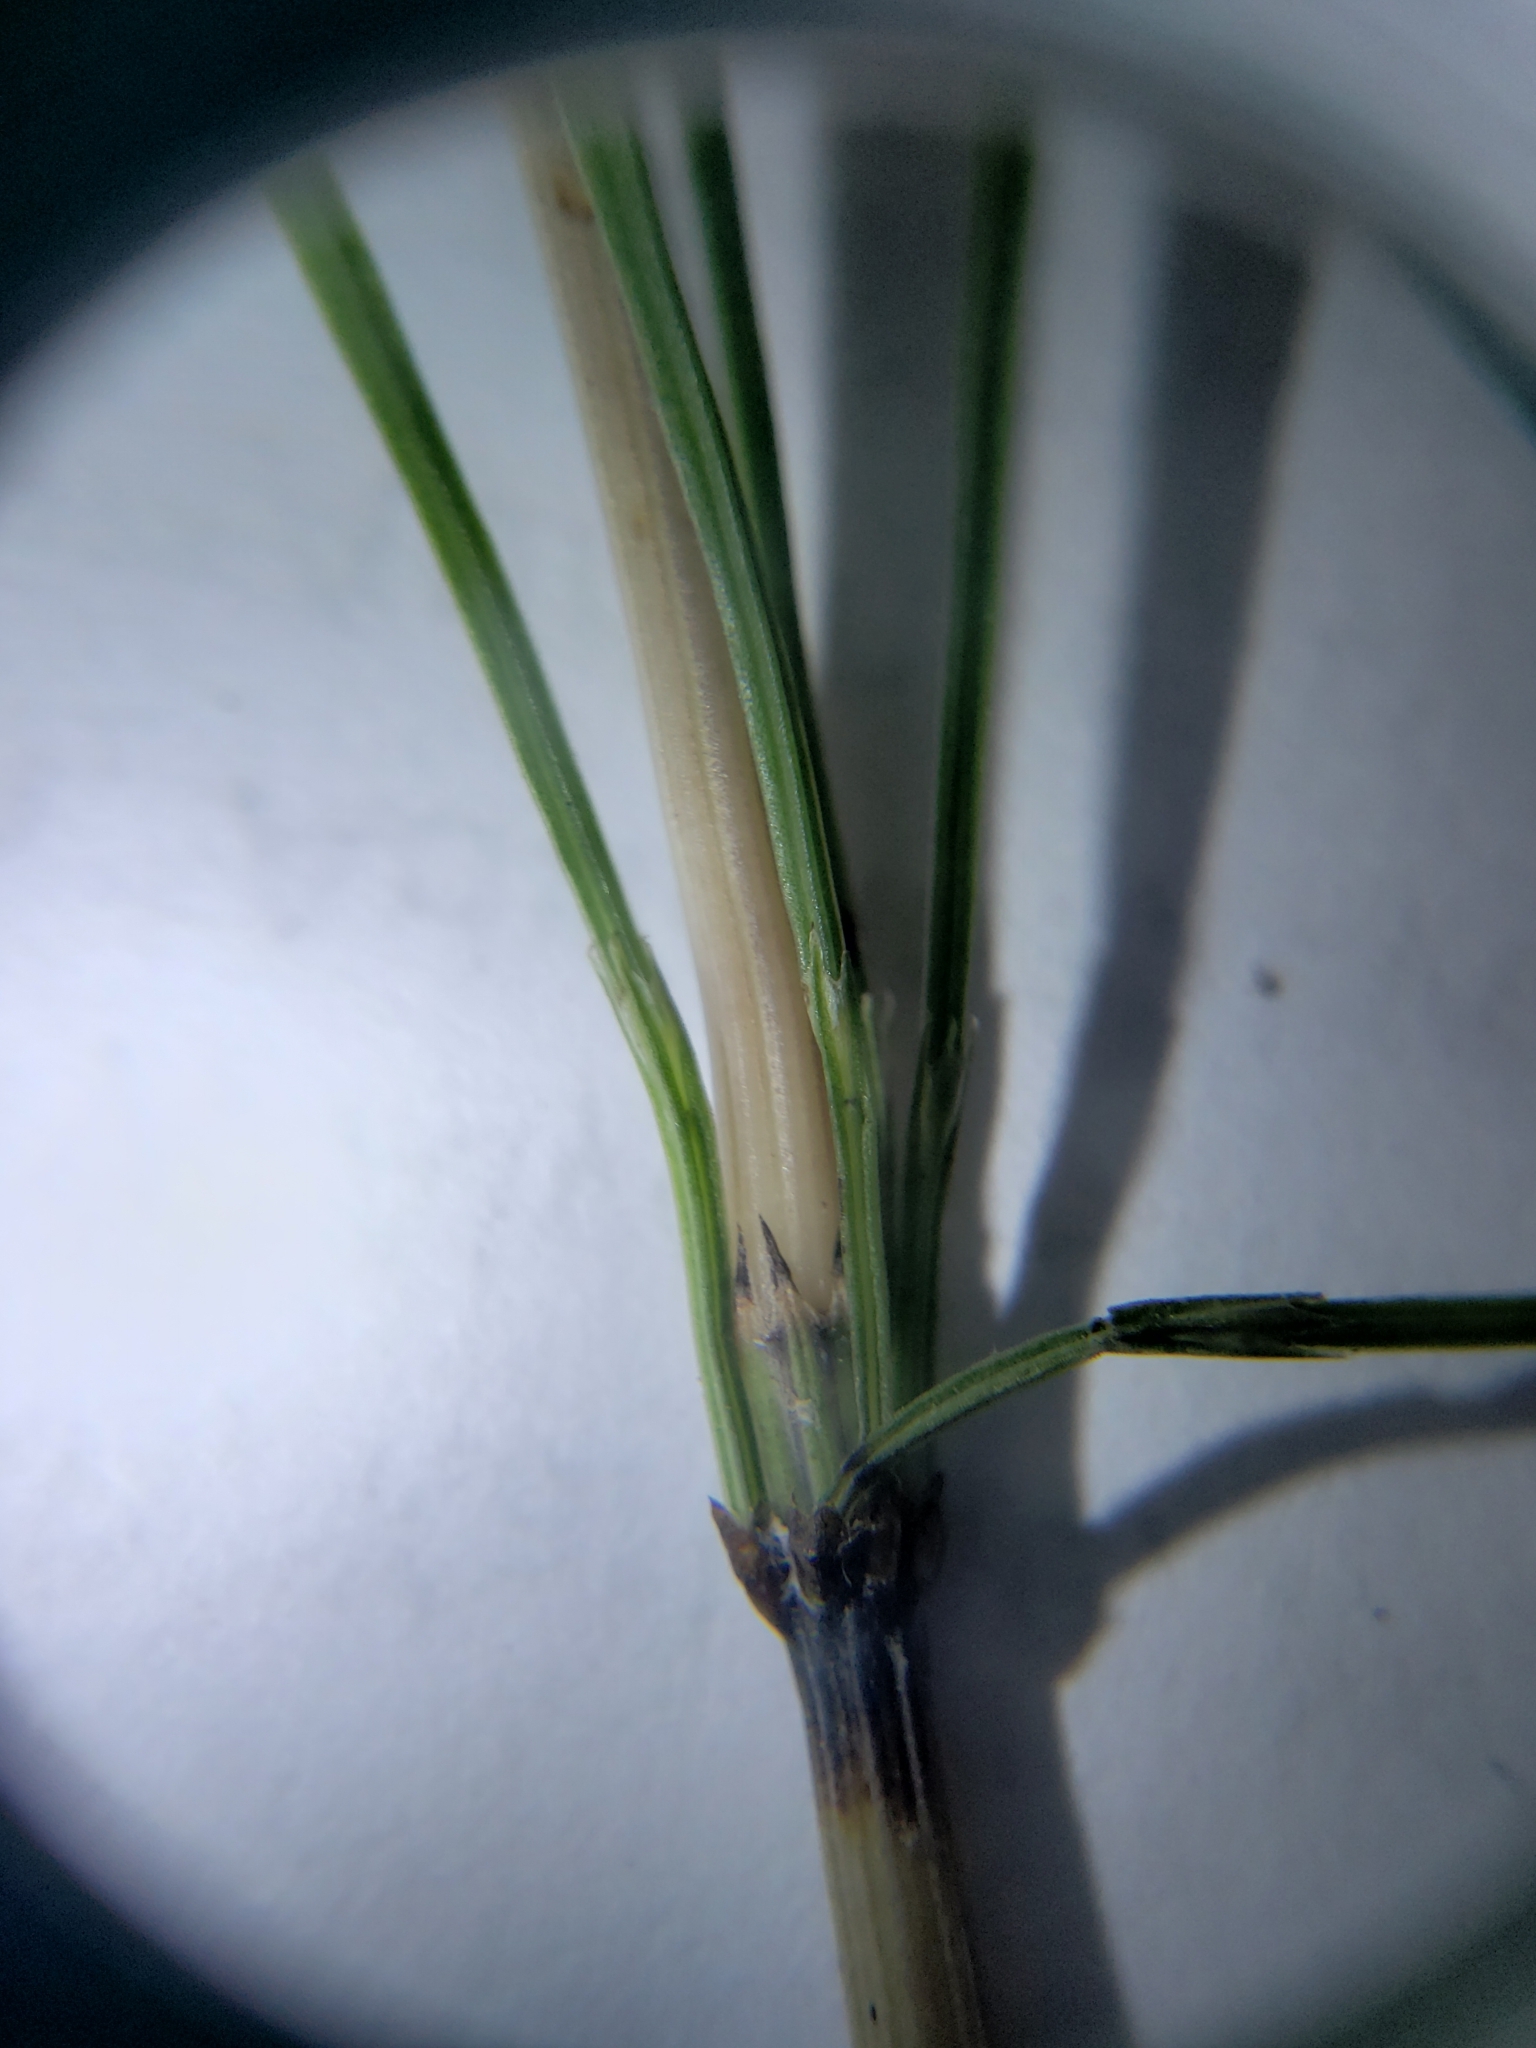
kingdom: Plantae
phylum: Tracheophyta
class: Polypodiopsida
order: Equisetales
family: Equisetaceae
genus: Equisetum
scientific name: Equisetum arvense
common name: Field horsetail
